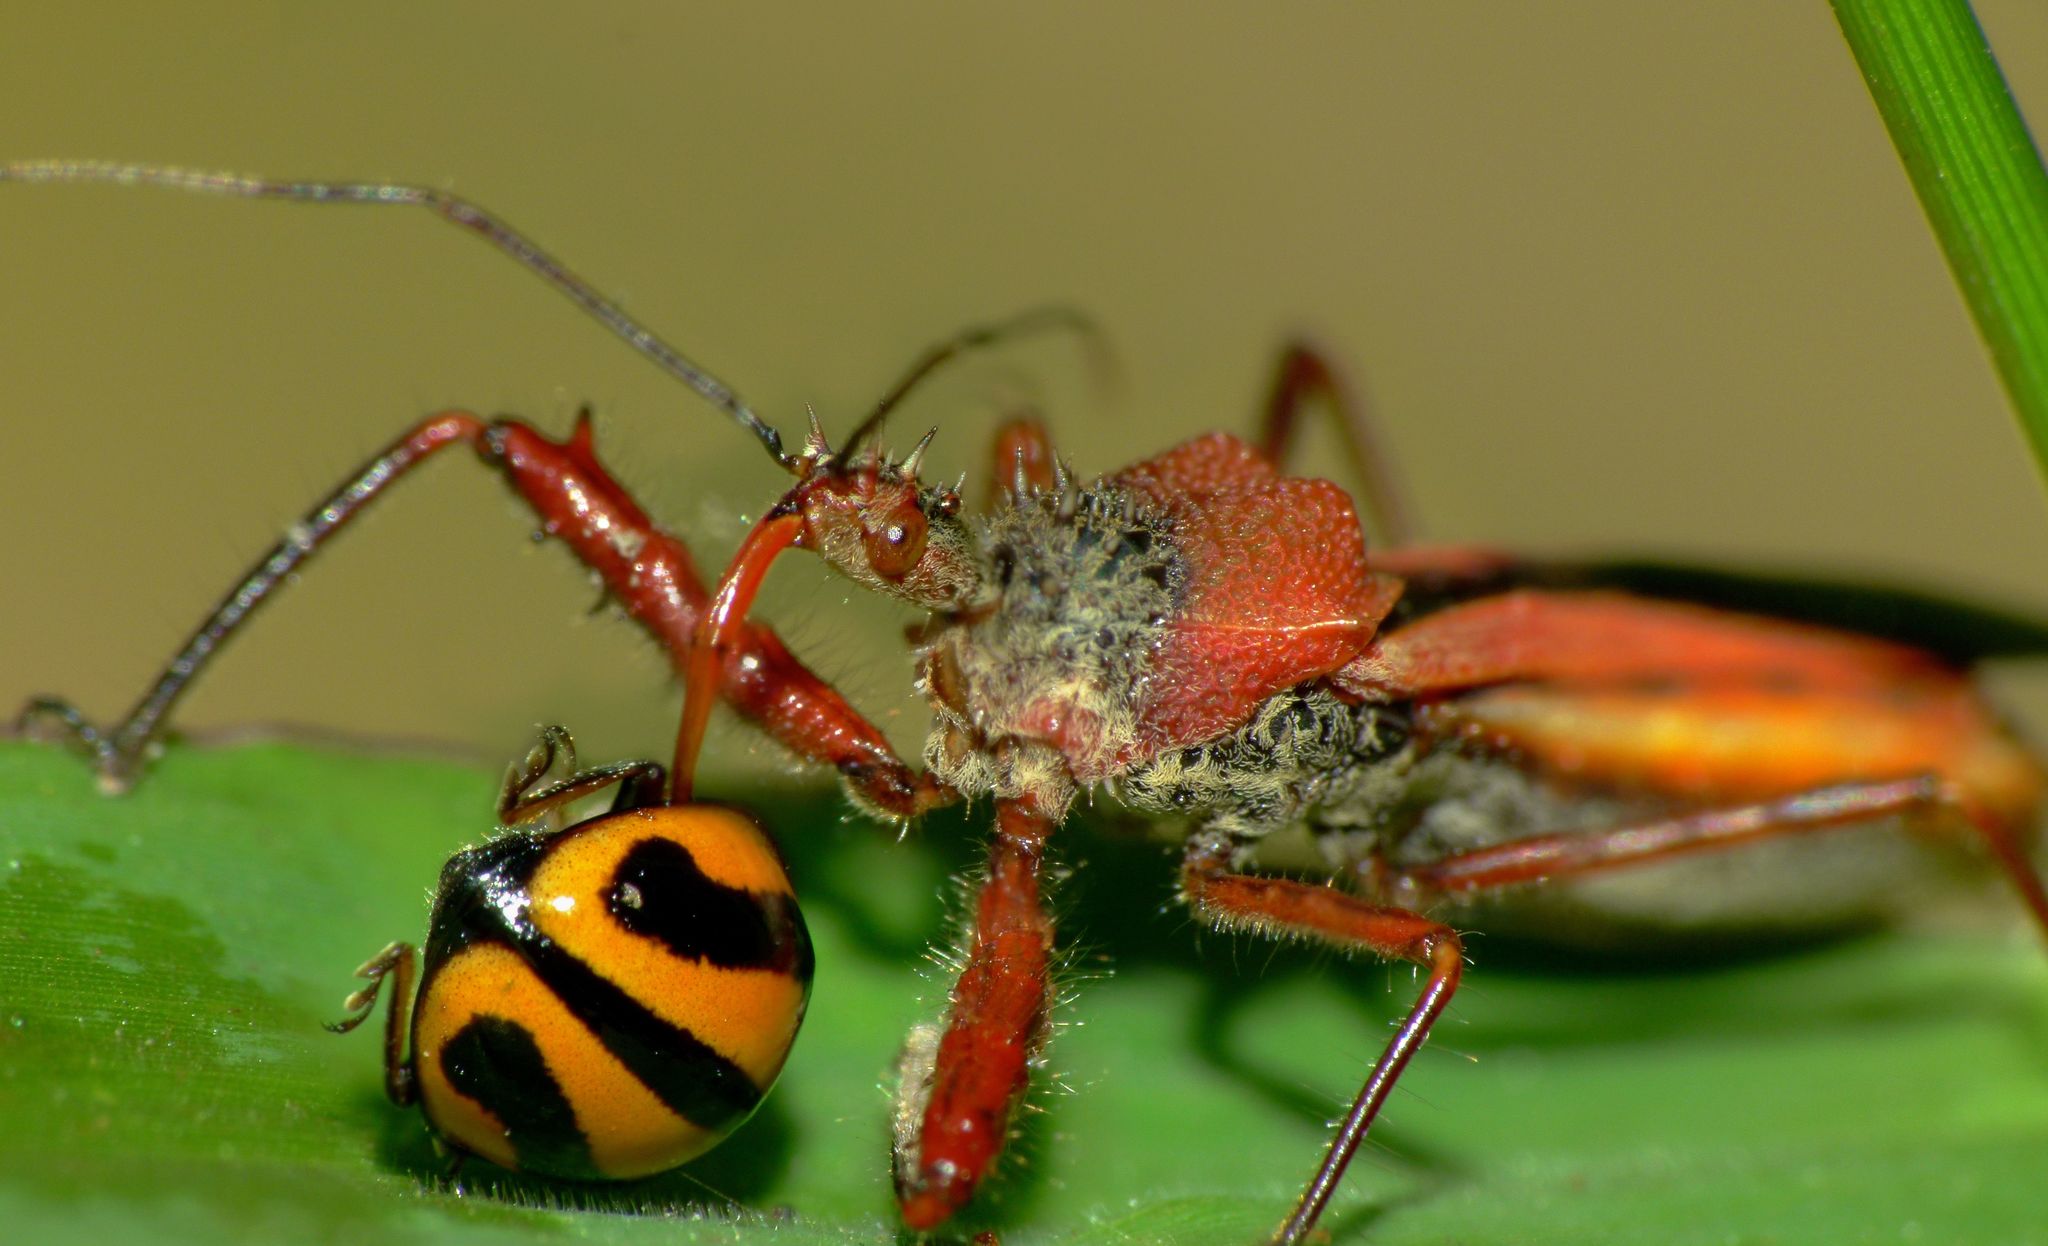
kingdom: Animalia
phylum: Arthropoda
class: Insecta
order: Hemiptera
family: Reduviidae
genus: Scipinia
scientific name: Scipinia arenacea
